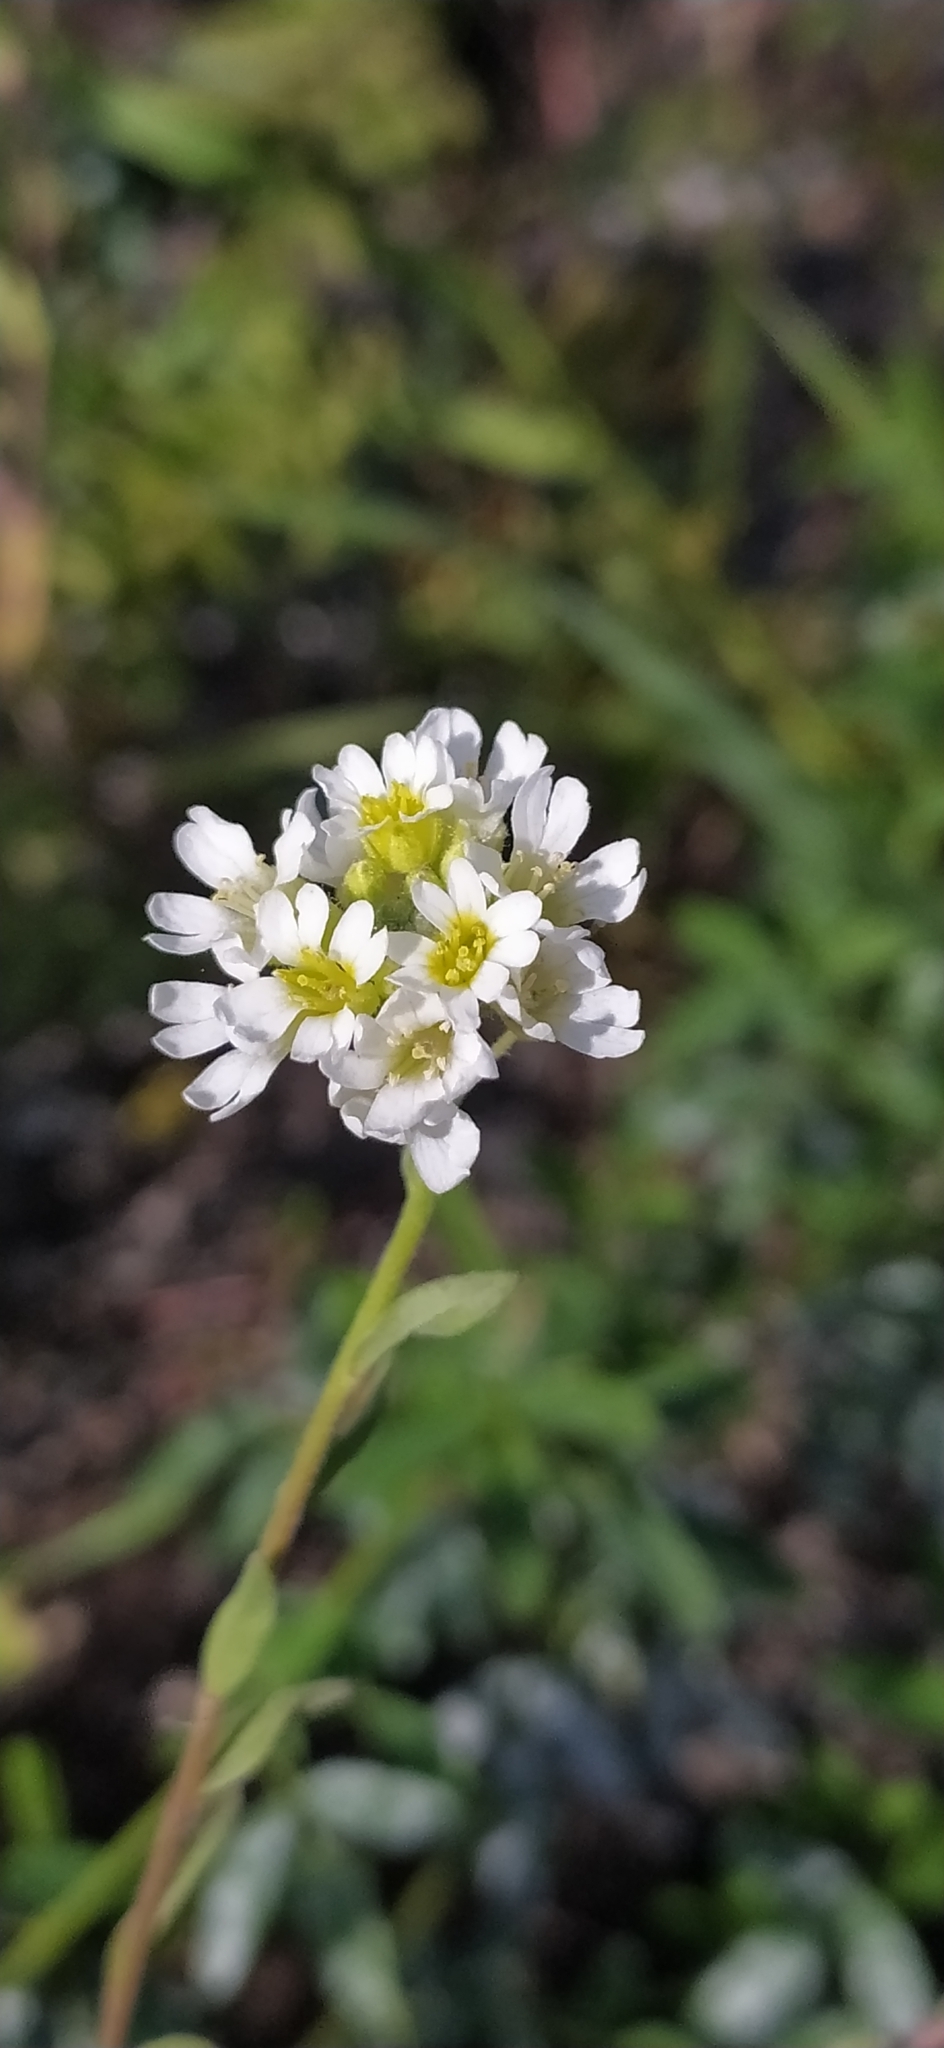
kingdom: Plantae
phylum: Tracheophyta
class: Magnoliopsida
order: Brassicales
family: Brassicaceae
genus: Berteroa
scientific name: Berteroa incana
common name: Hoary alison
